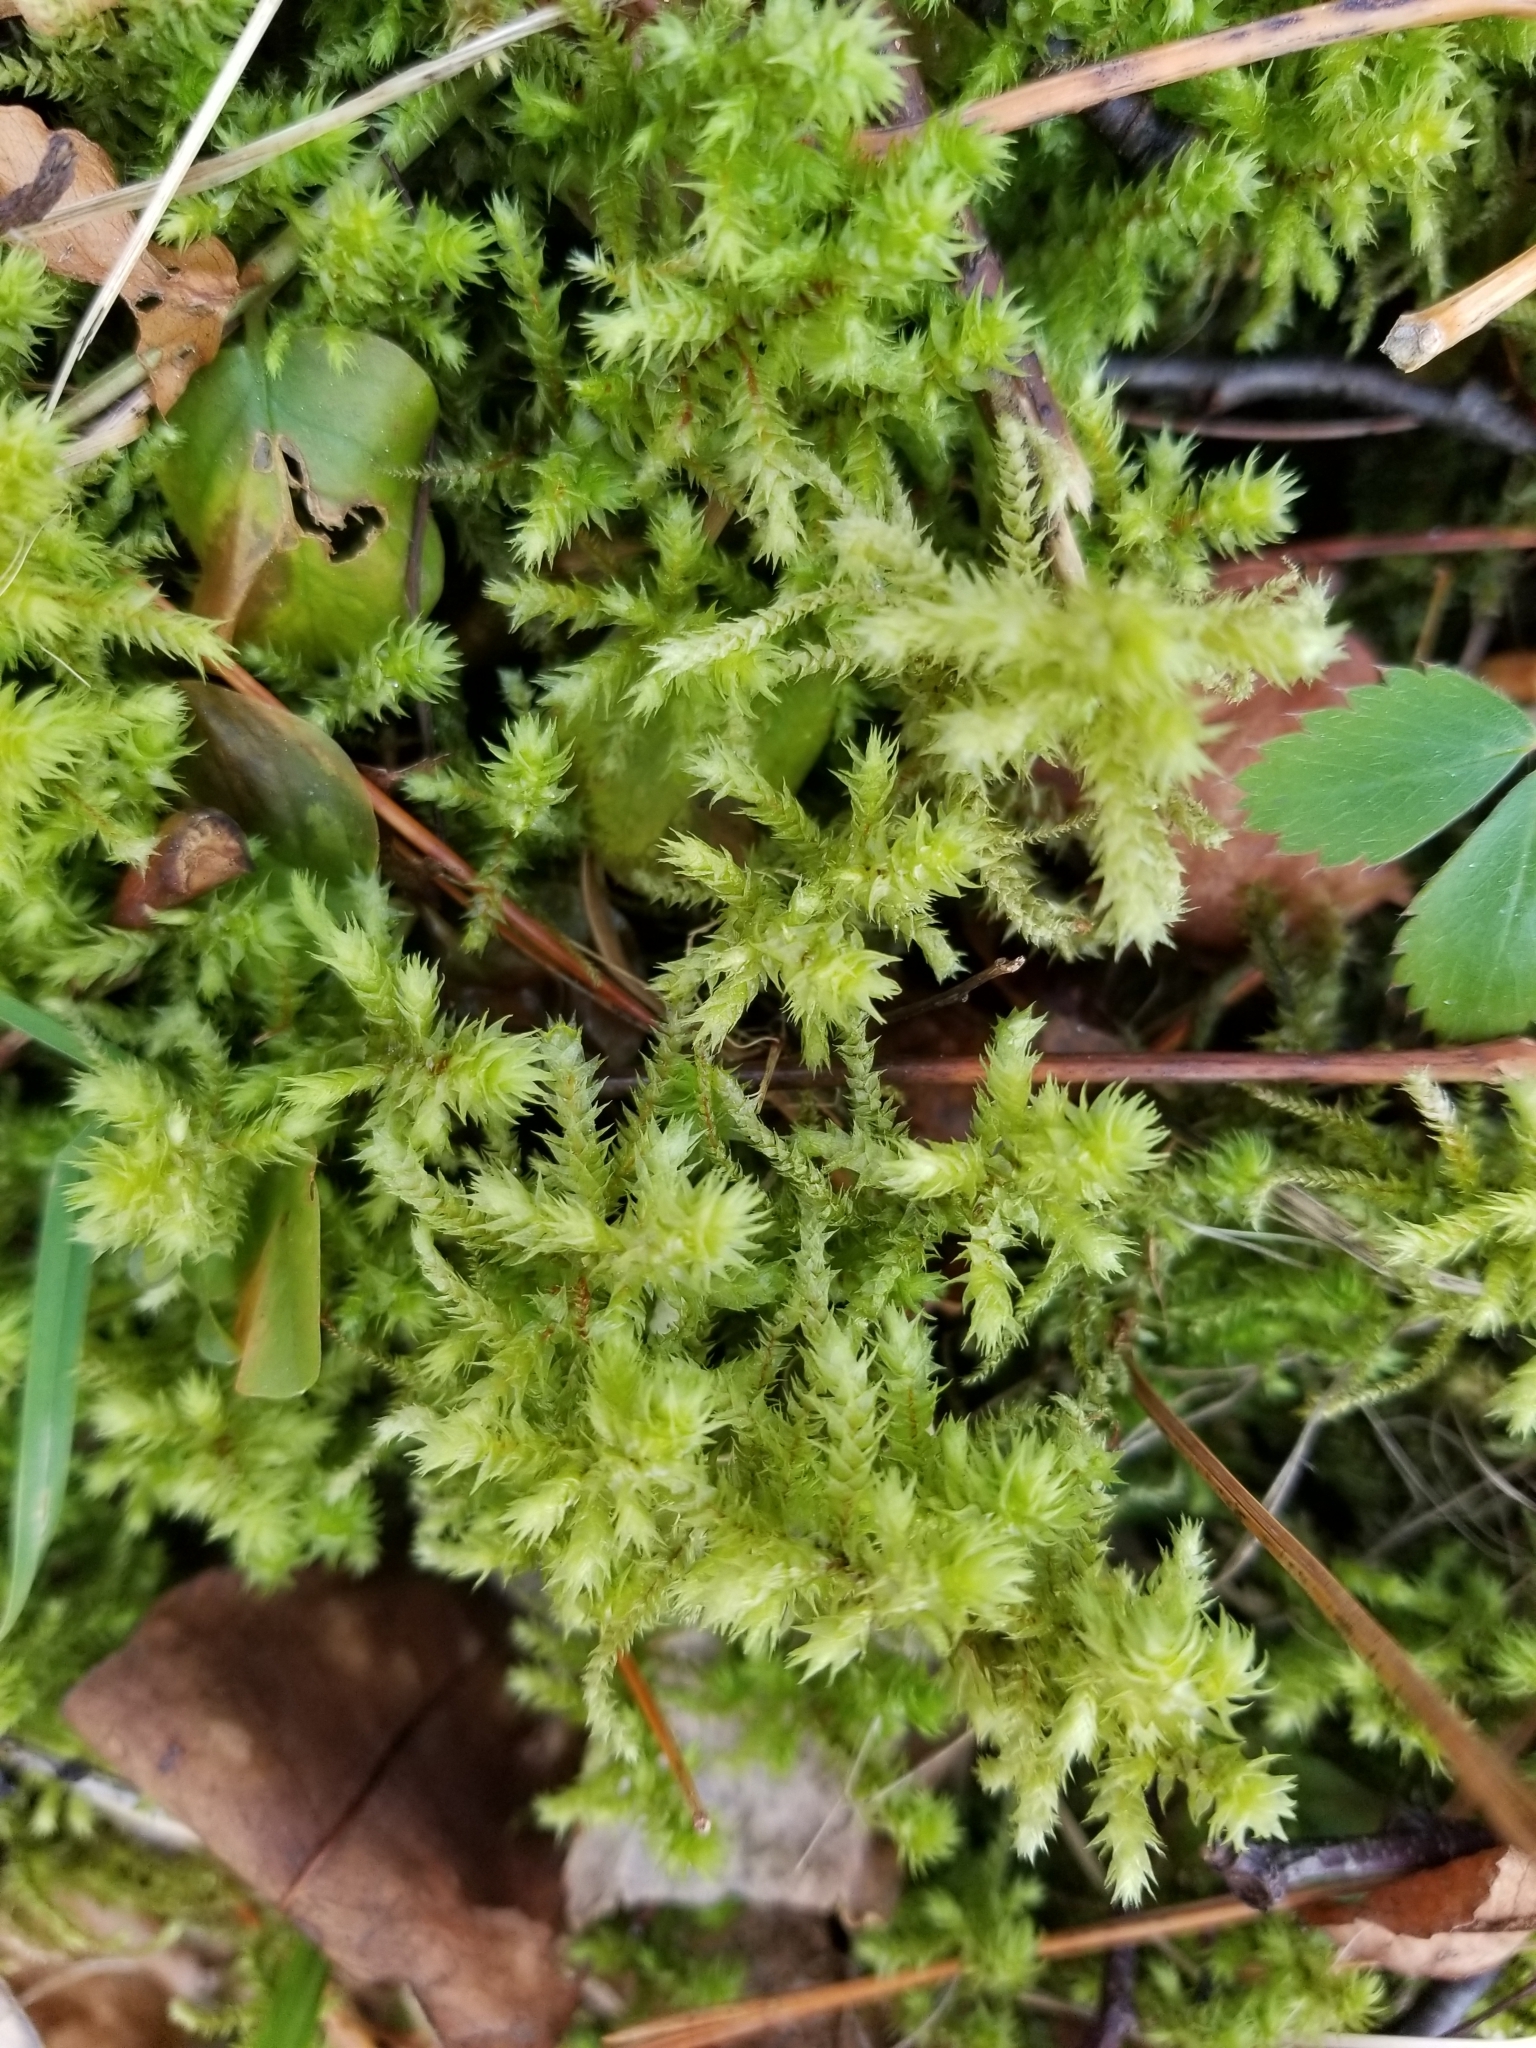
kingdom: Plantae
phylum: Bryophyta
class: Bryopsida
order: Hypnales
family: Hylocomiaceae
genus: Hylocomiadelphus
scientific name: Hylocomiadelphus triquetrus
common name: Rough goose neck moss
